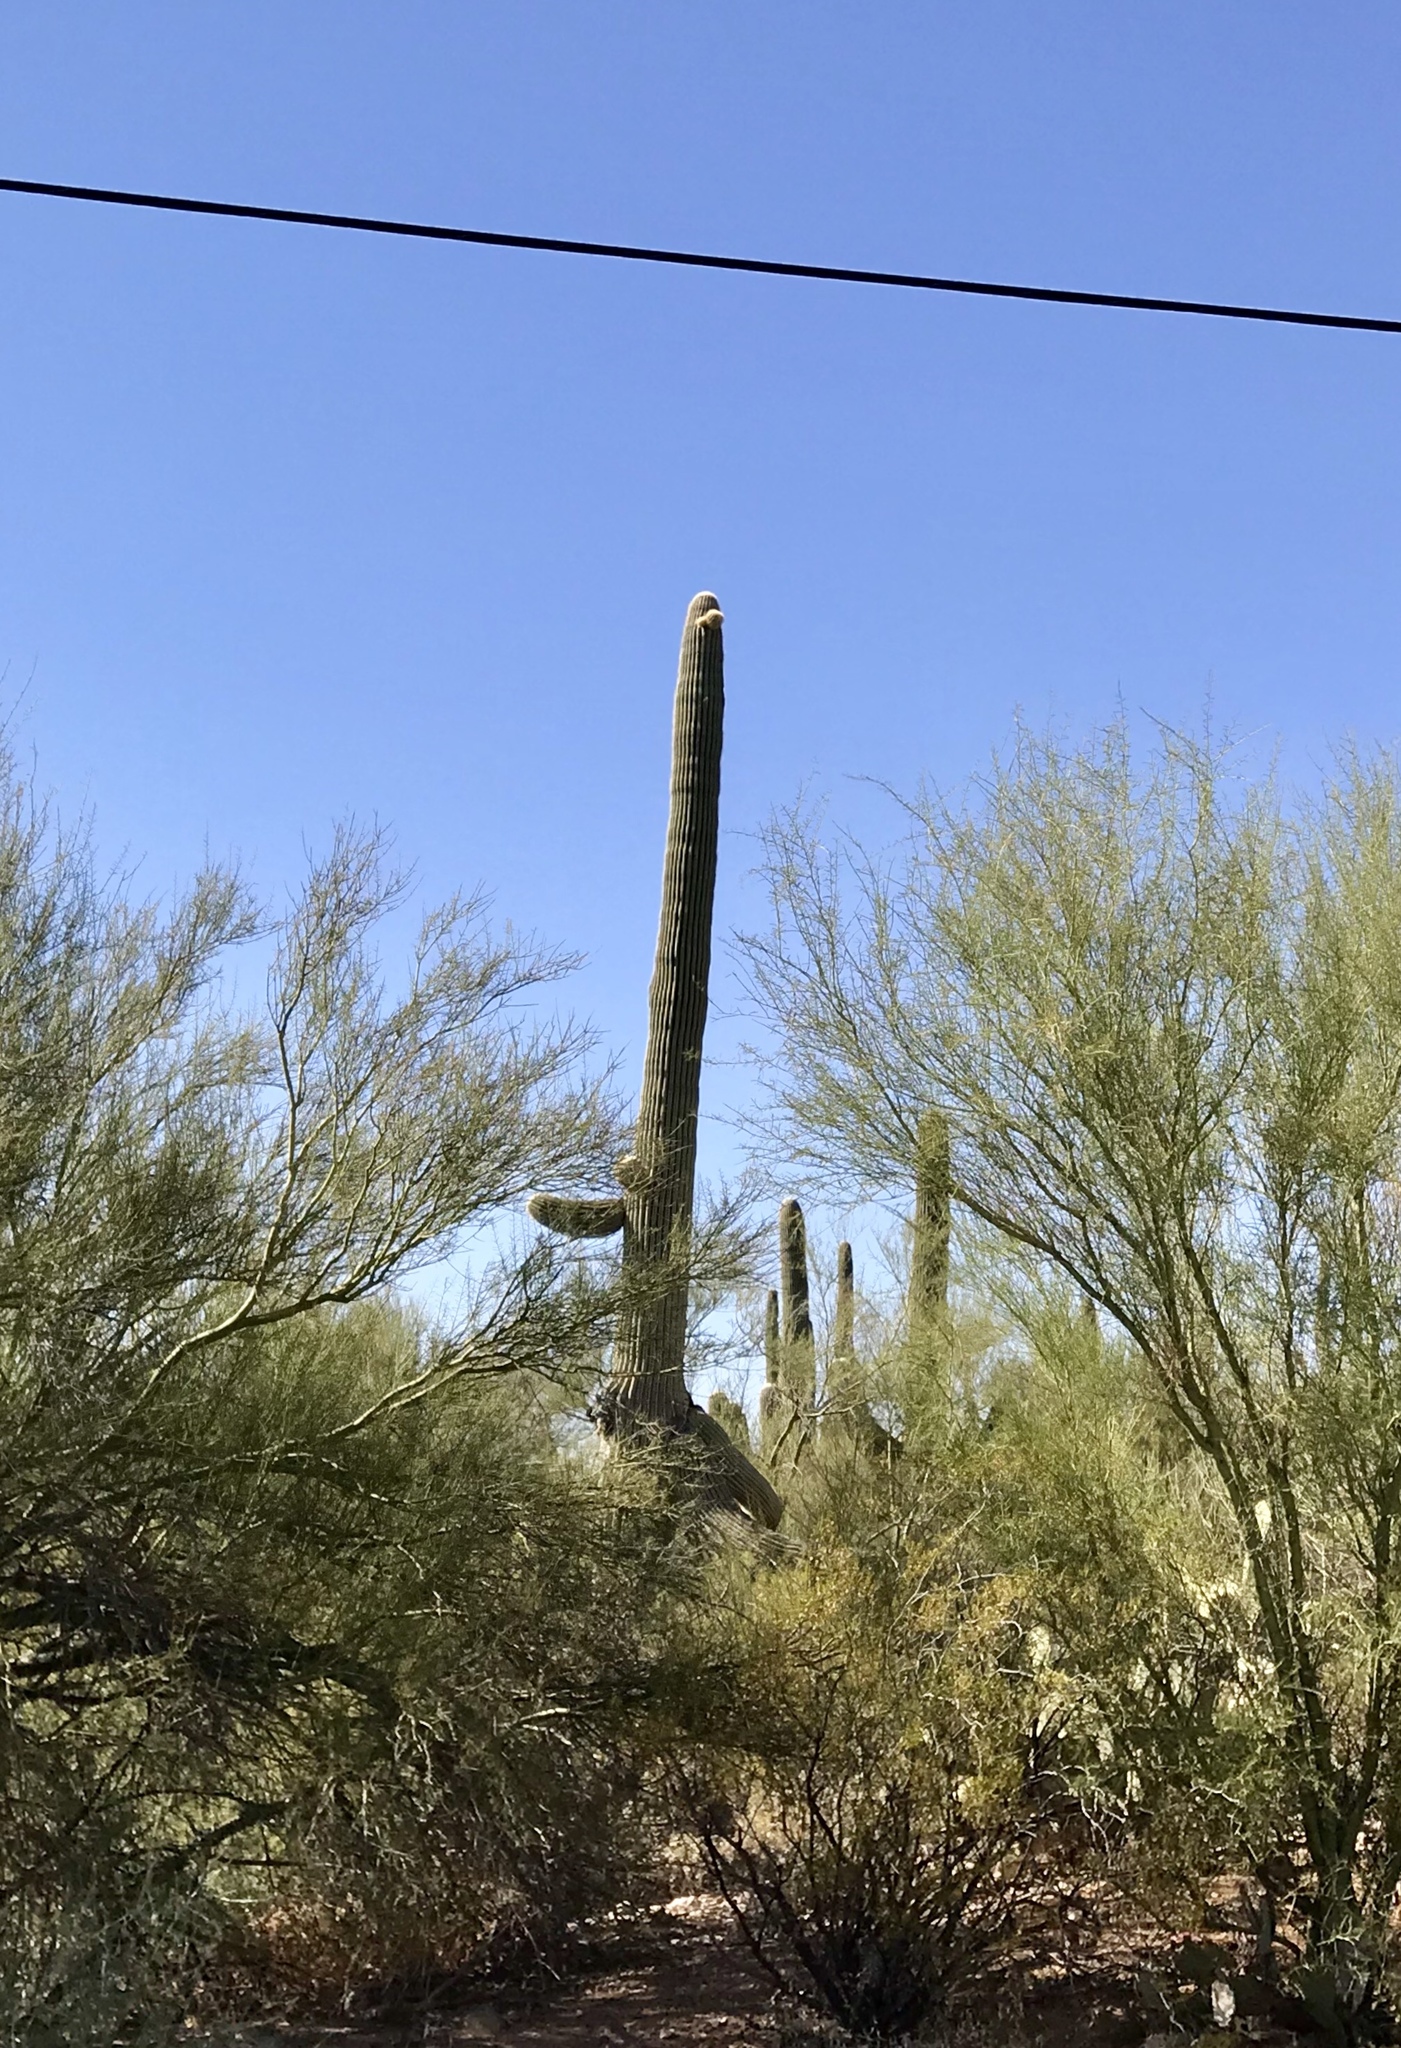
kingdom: Plantae
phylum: Tracheophyta
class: Magnoliopsida
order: Caryophyllales
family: Cactaceae
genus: Carnegiea
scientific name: Carnegiea gigantea
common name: Saguaro
